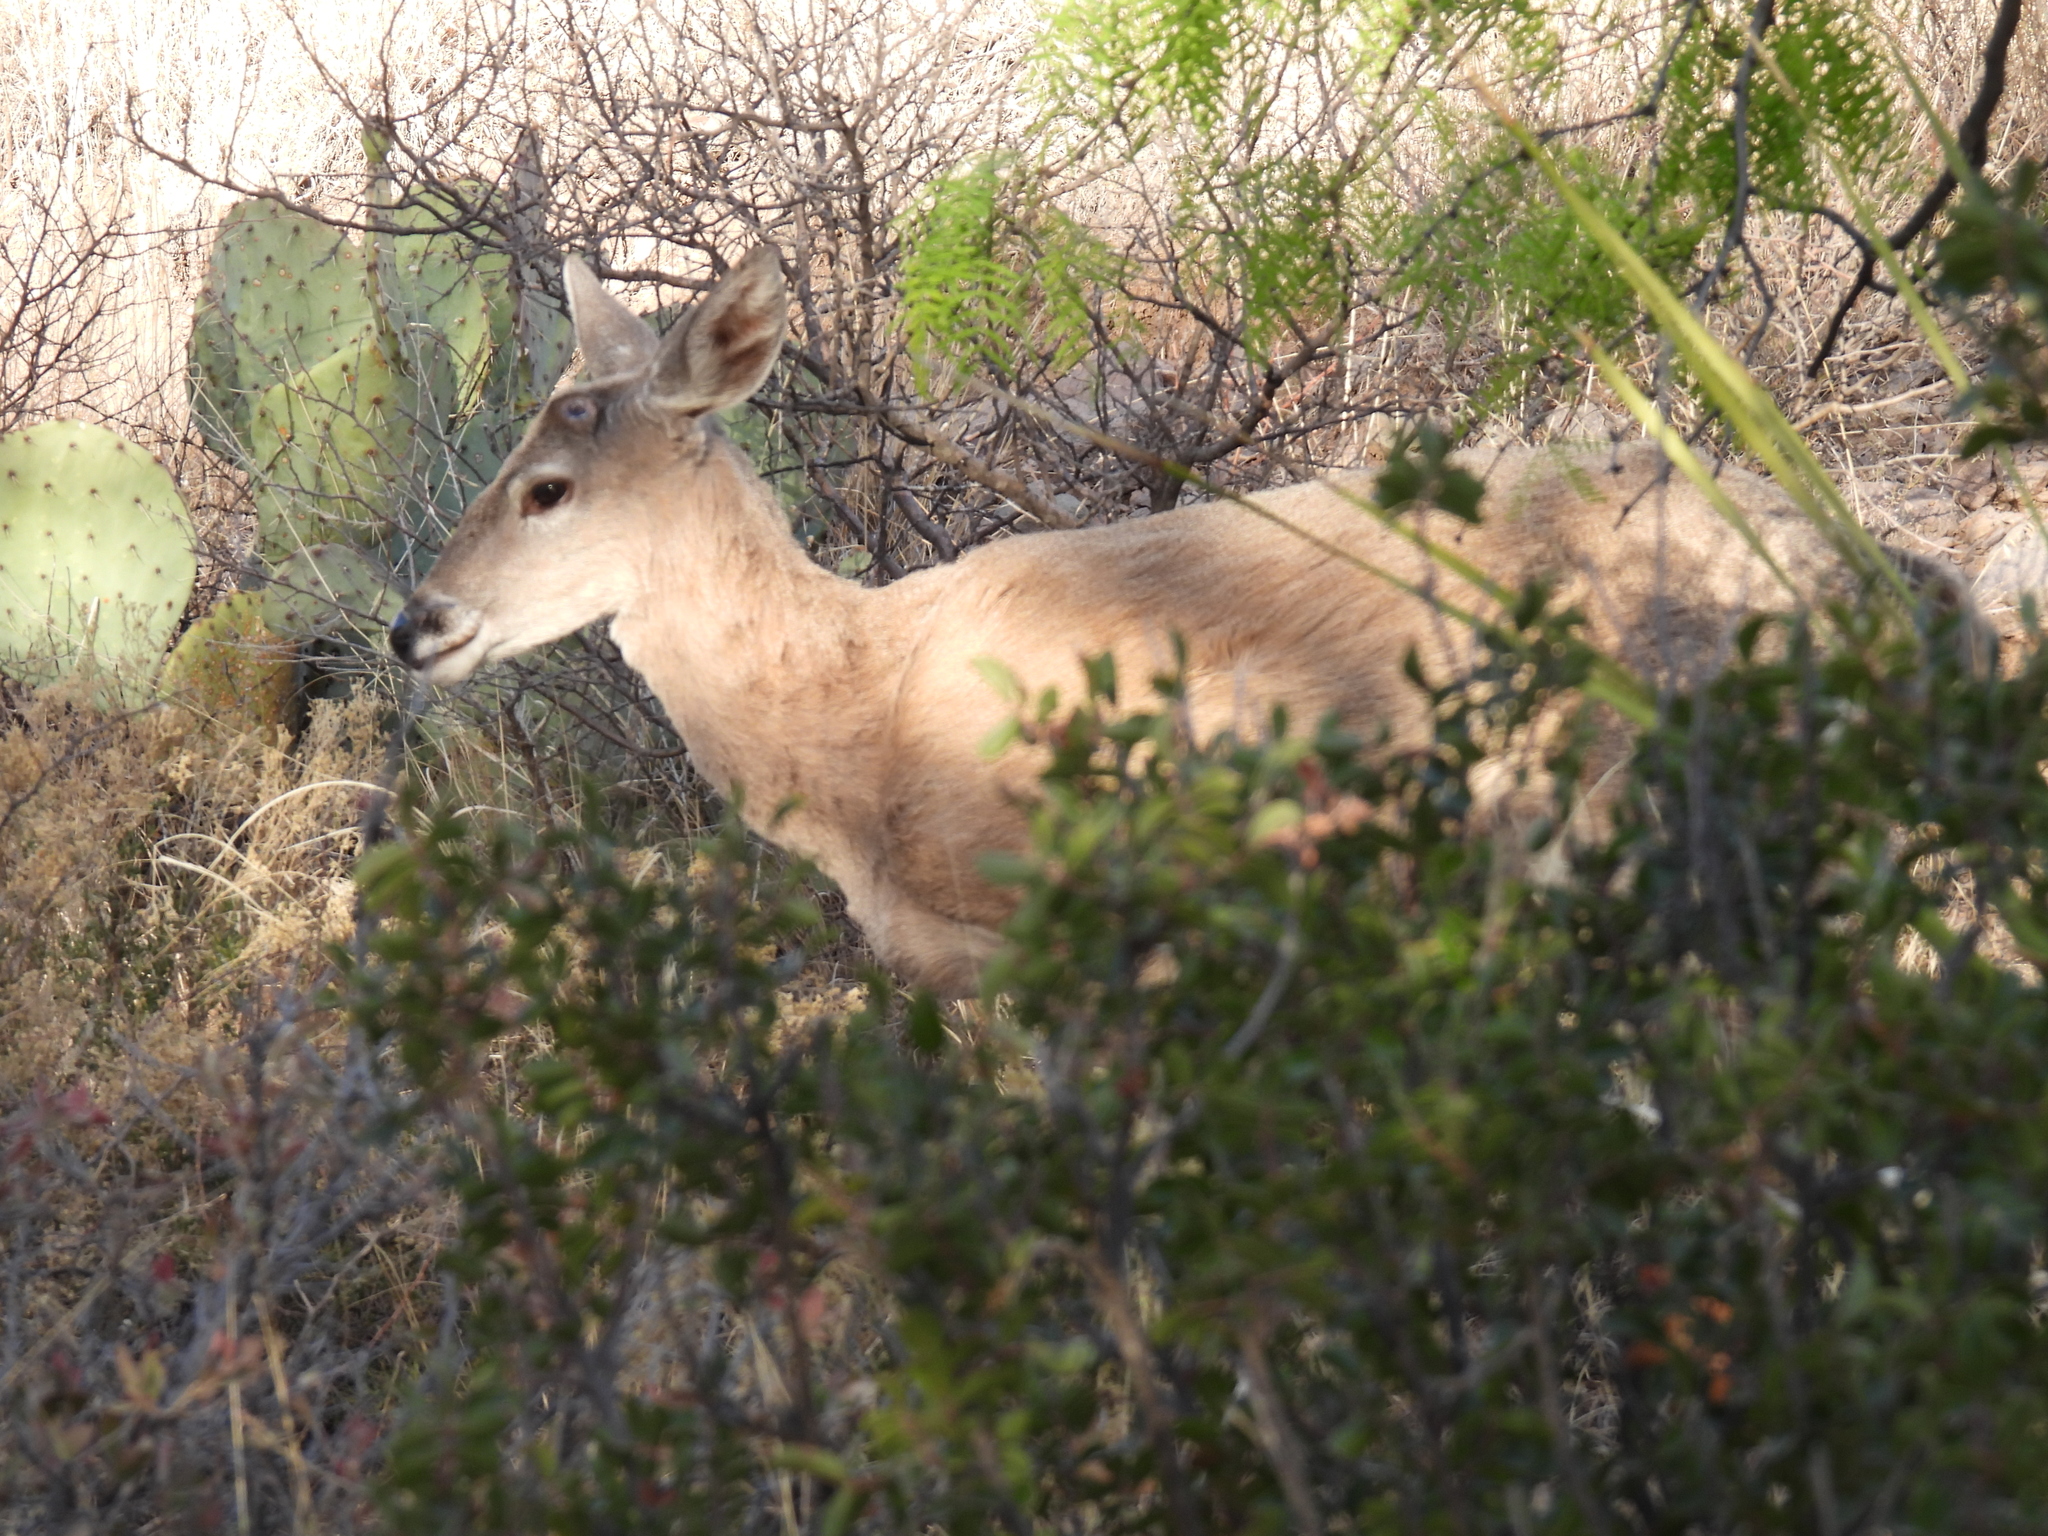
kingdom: Animalia
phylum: Chordata
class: Mammalia
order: Artiodactyla
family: Cervidae
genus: Odocoileus
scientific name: Odocoileus virginianus
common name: White-tailed deer
